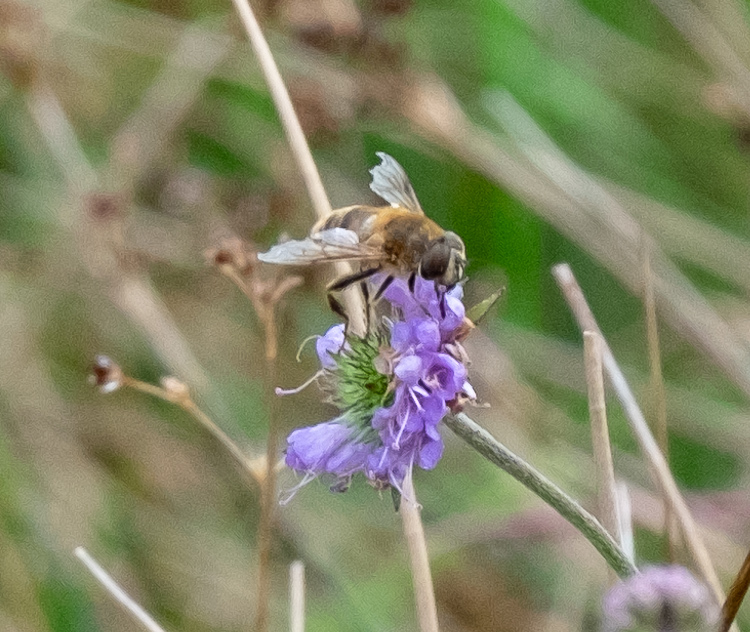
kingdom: Animalia
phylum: Arthropoda
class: Insecta
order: Diptera
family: Syrphidae
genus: Eristalis
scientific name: Eristalis tenax
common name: Drone fly
